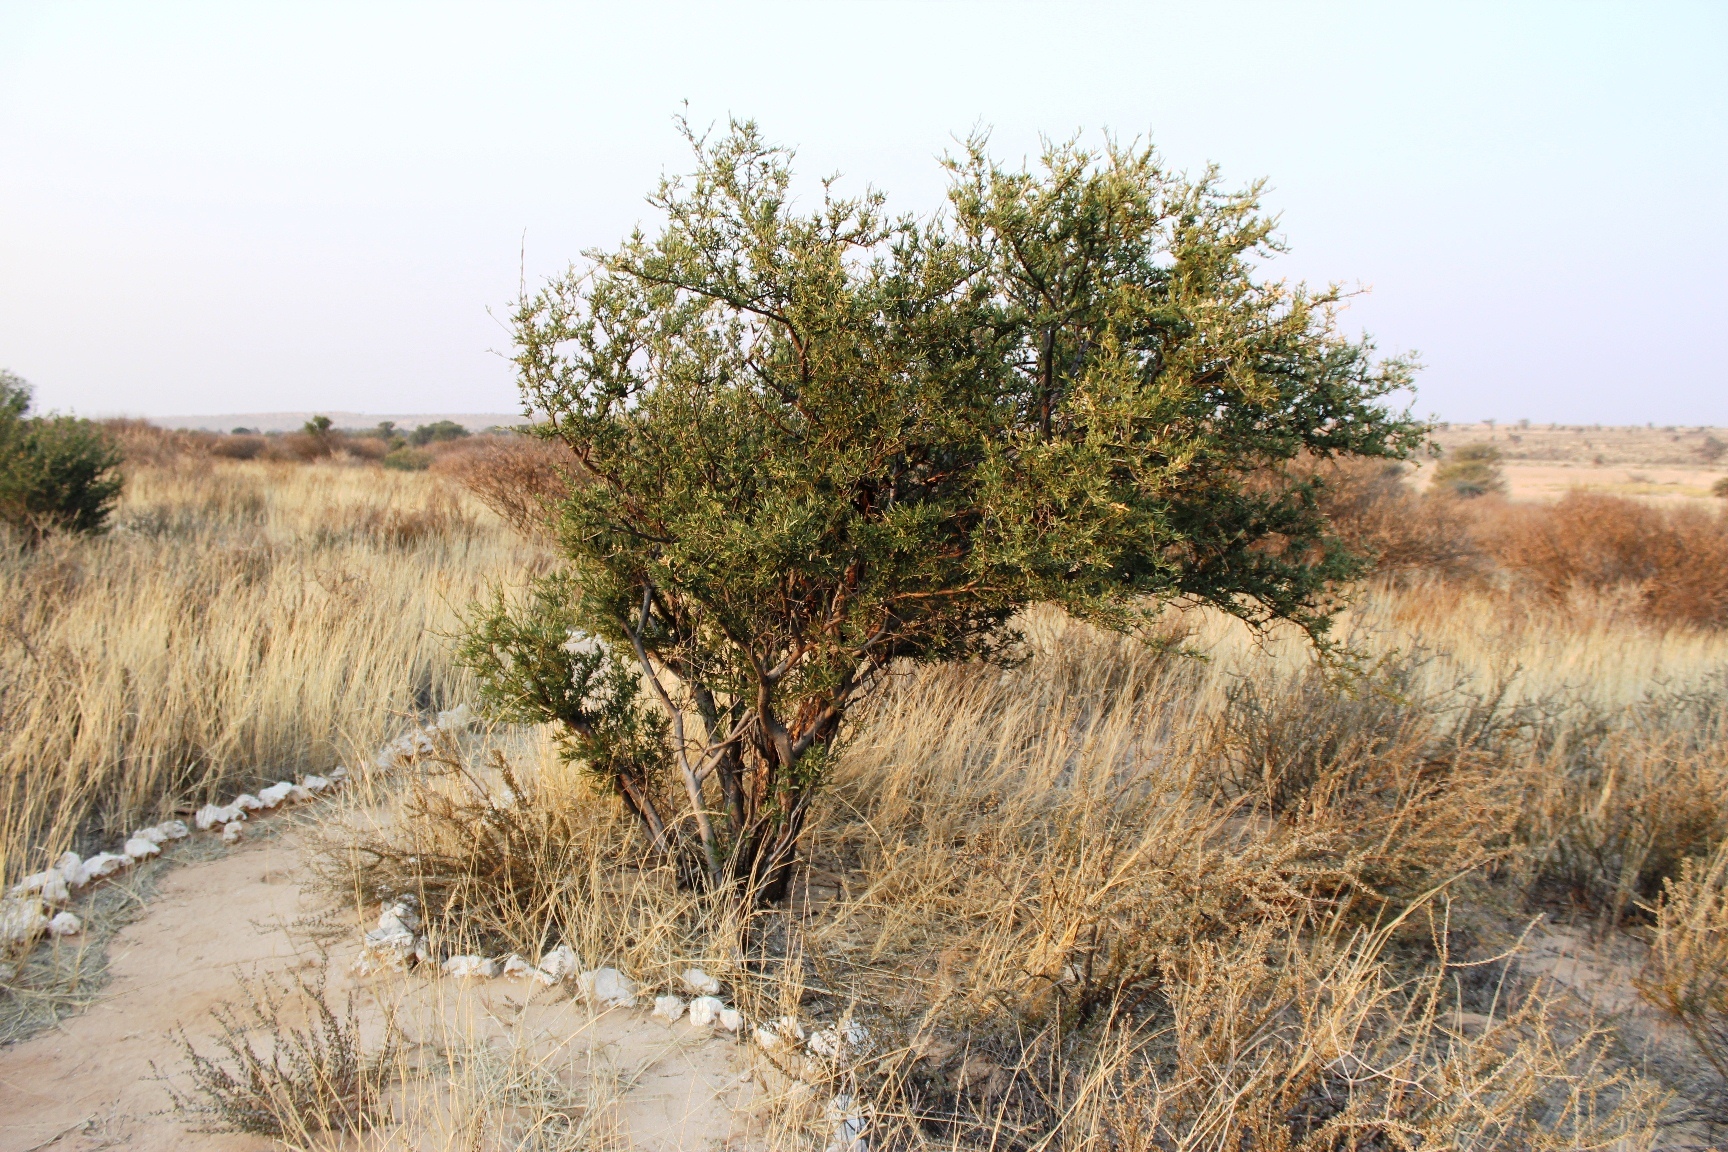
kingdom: Plantae
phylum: Tracheophyta
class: Magnoliopsida
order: Brassicales
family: Capparaceae
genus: Boscia
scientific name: Boscia albitrunca
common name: Caper bush
